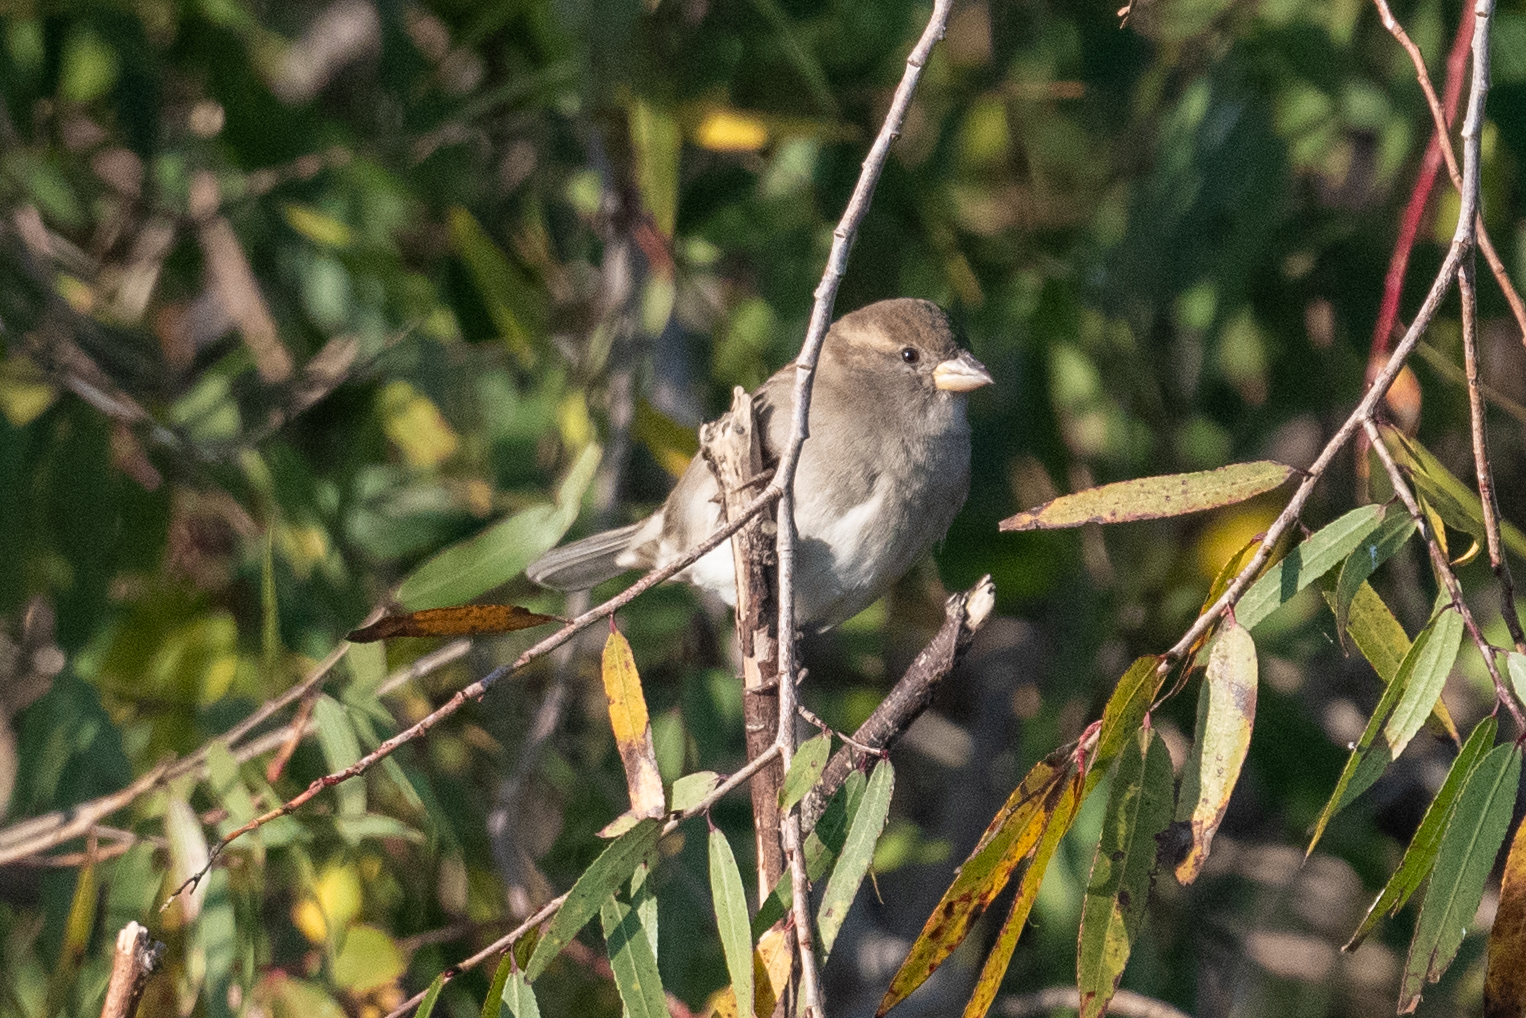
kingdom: Animalia
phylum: Chordata
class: Aves
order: Passeriformes
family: Passeridae
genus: Passer
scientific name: Passer domesticus
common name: House sparrow
